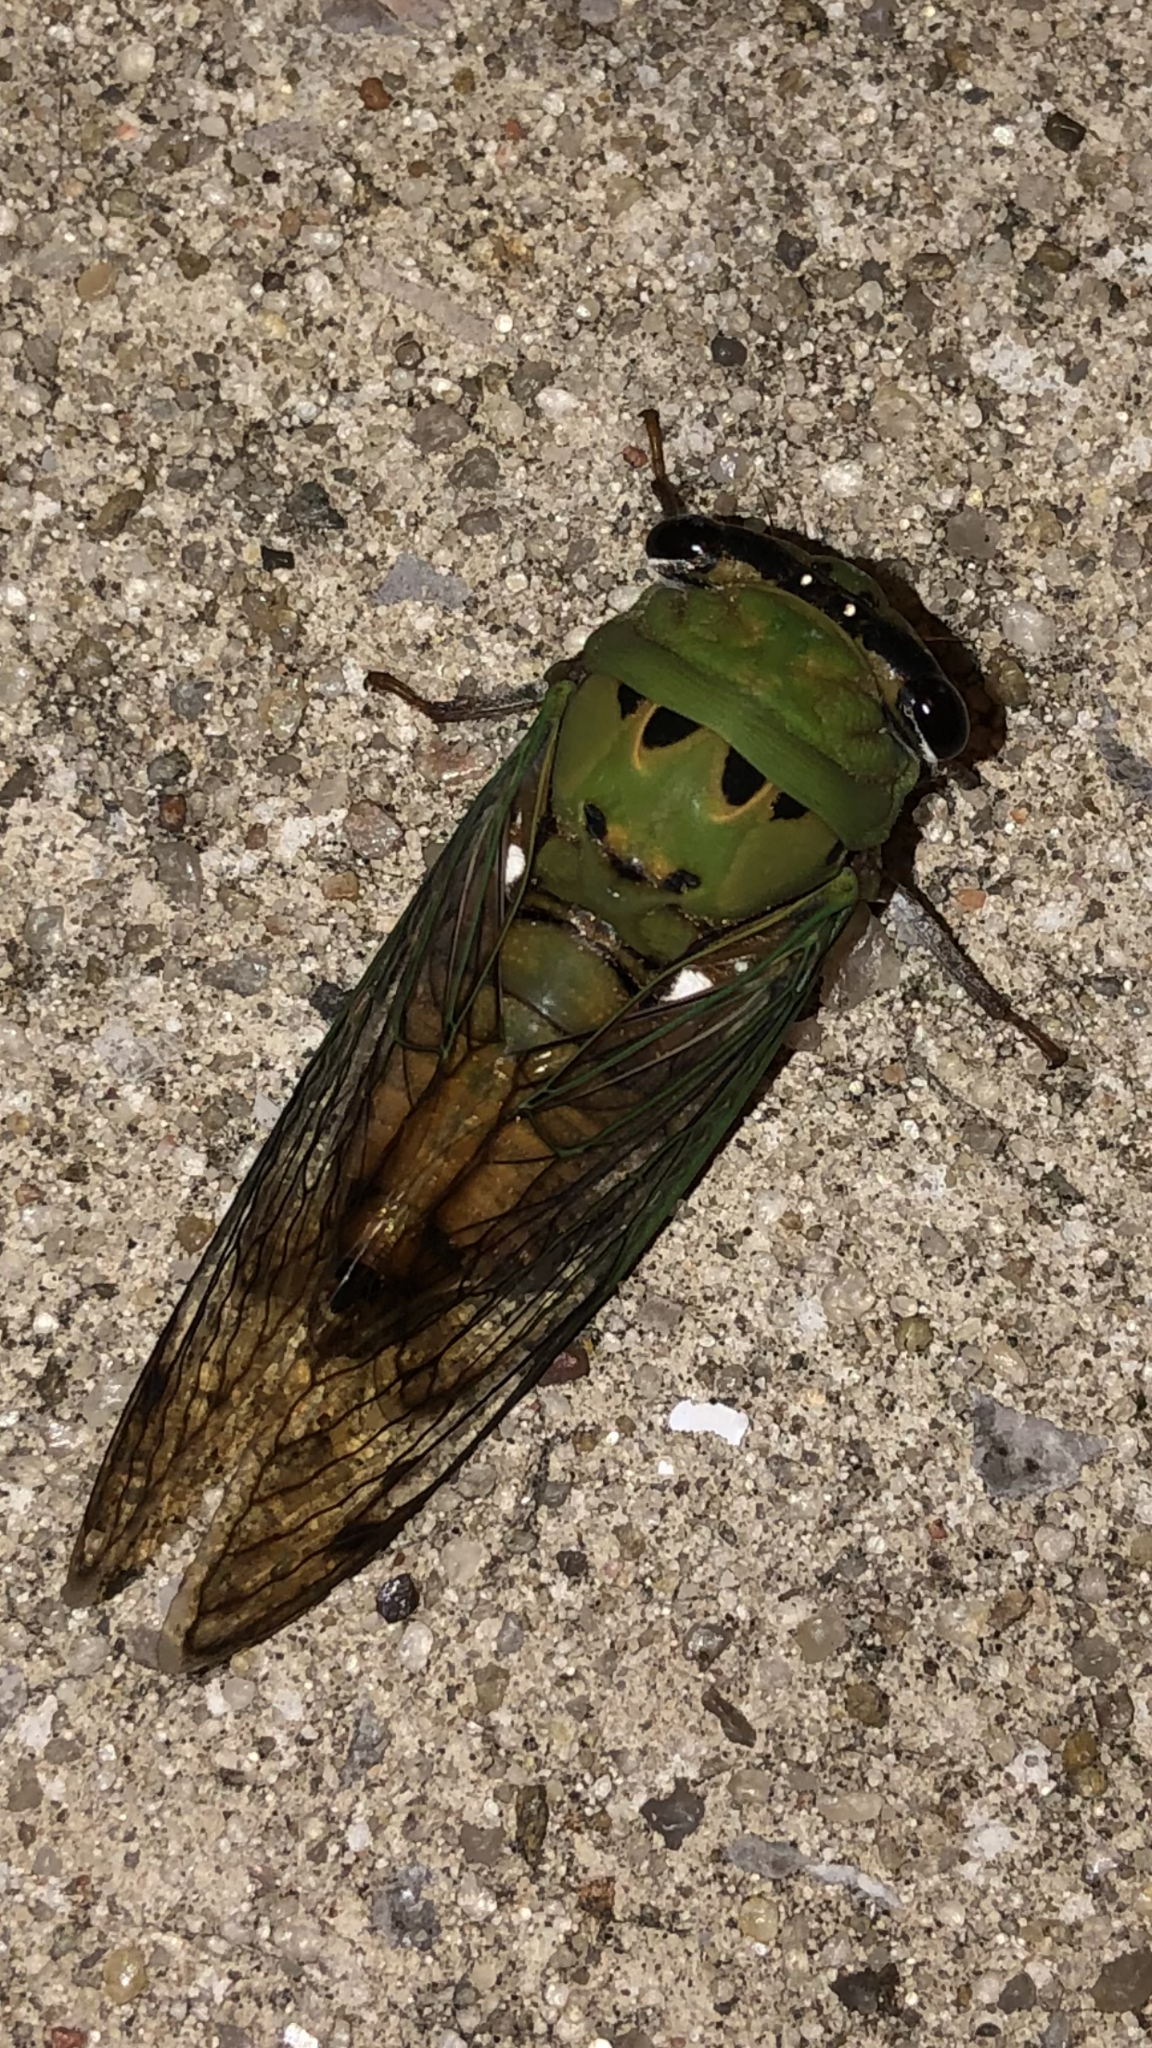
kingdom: Animalia
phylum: Arthropoda
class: Insecta
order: Hemiptera
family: Cicadidae
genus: Neotibicen
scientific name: Neotibicen superbus
